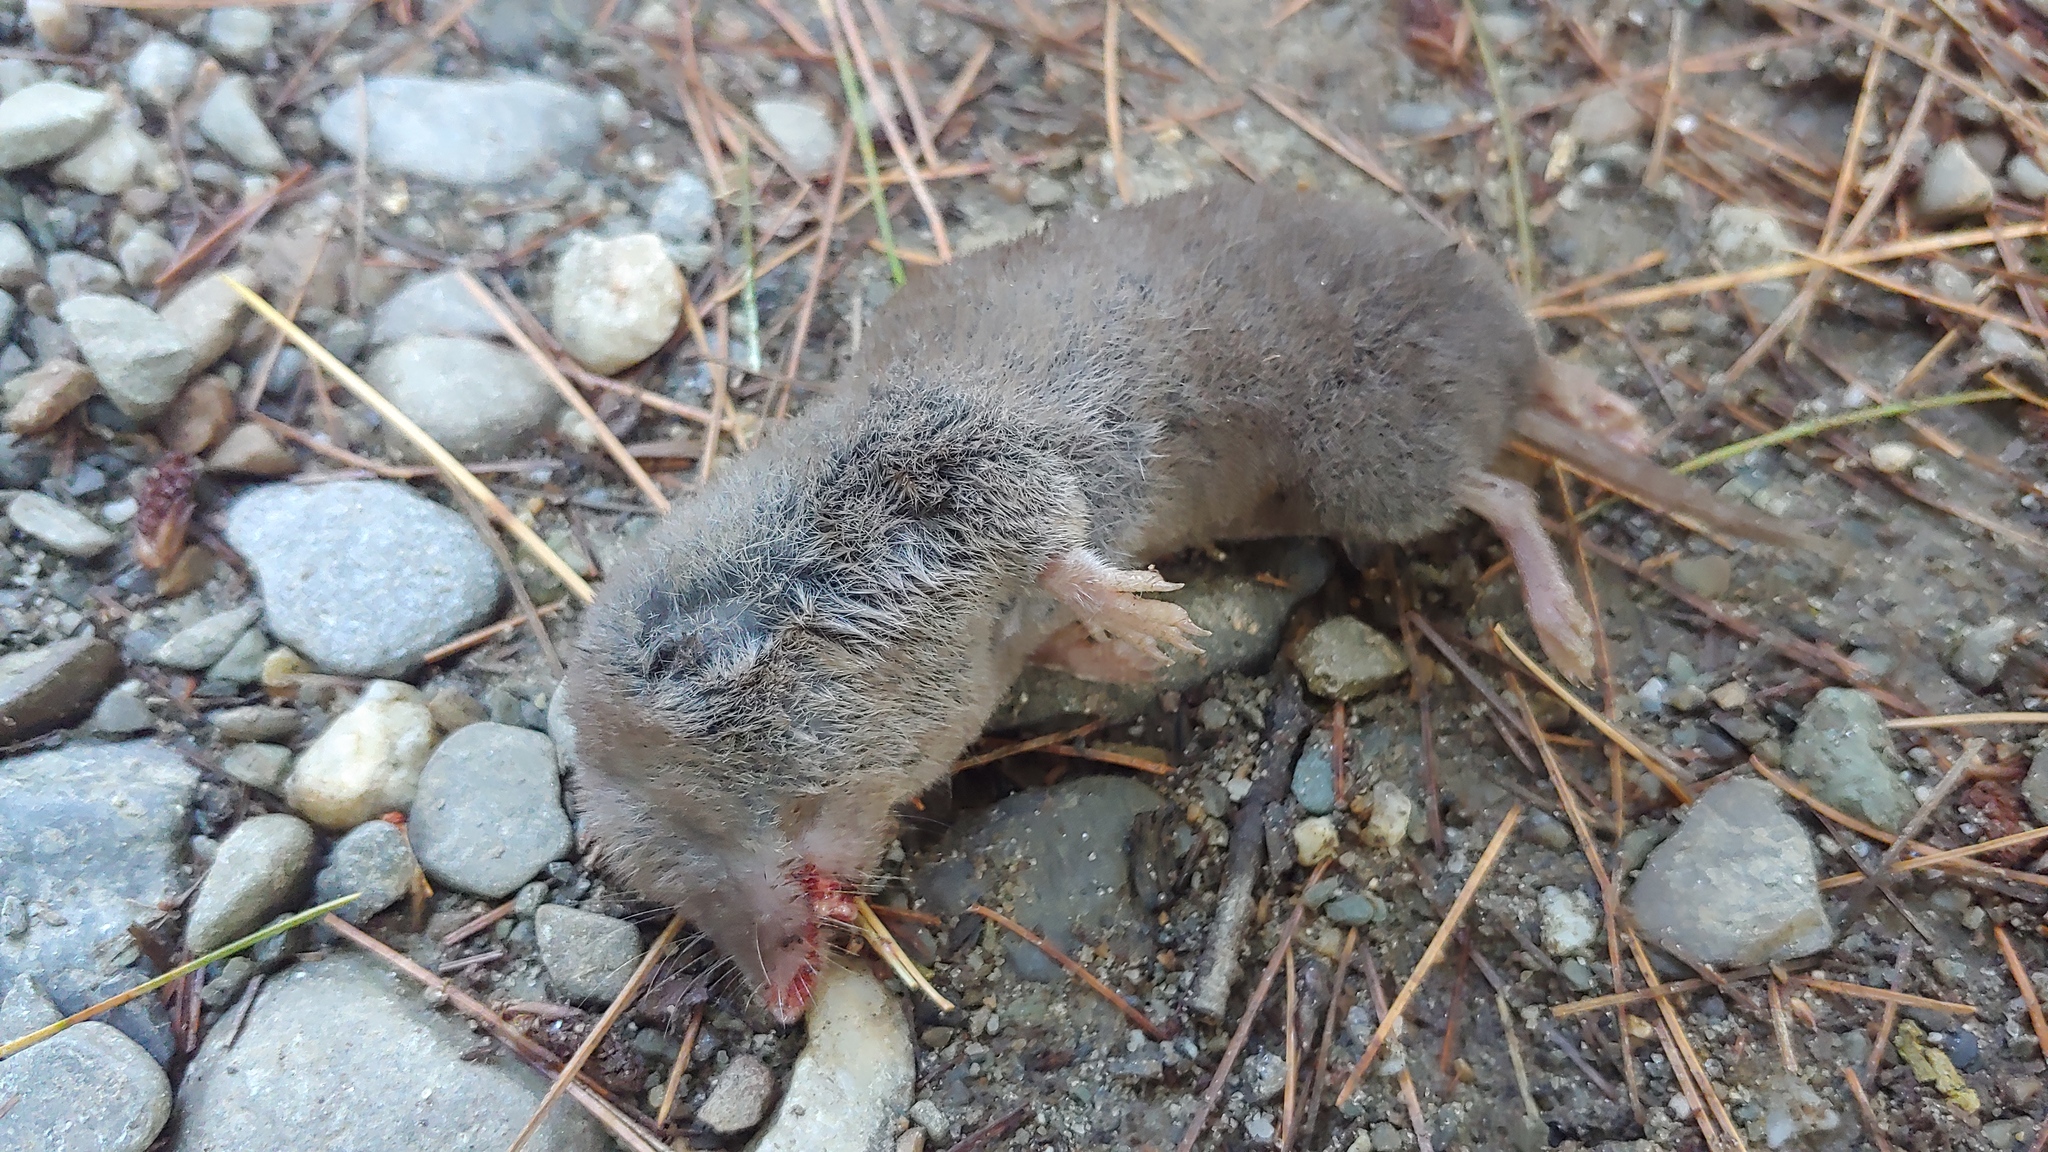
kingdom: Animalia
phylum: Chordata
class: Mammalia
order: Soricomorpha
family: Soricidae
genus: Blarina
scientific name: Blarina brevicauda
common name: Northern short-tailed shrew
